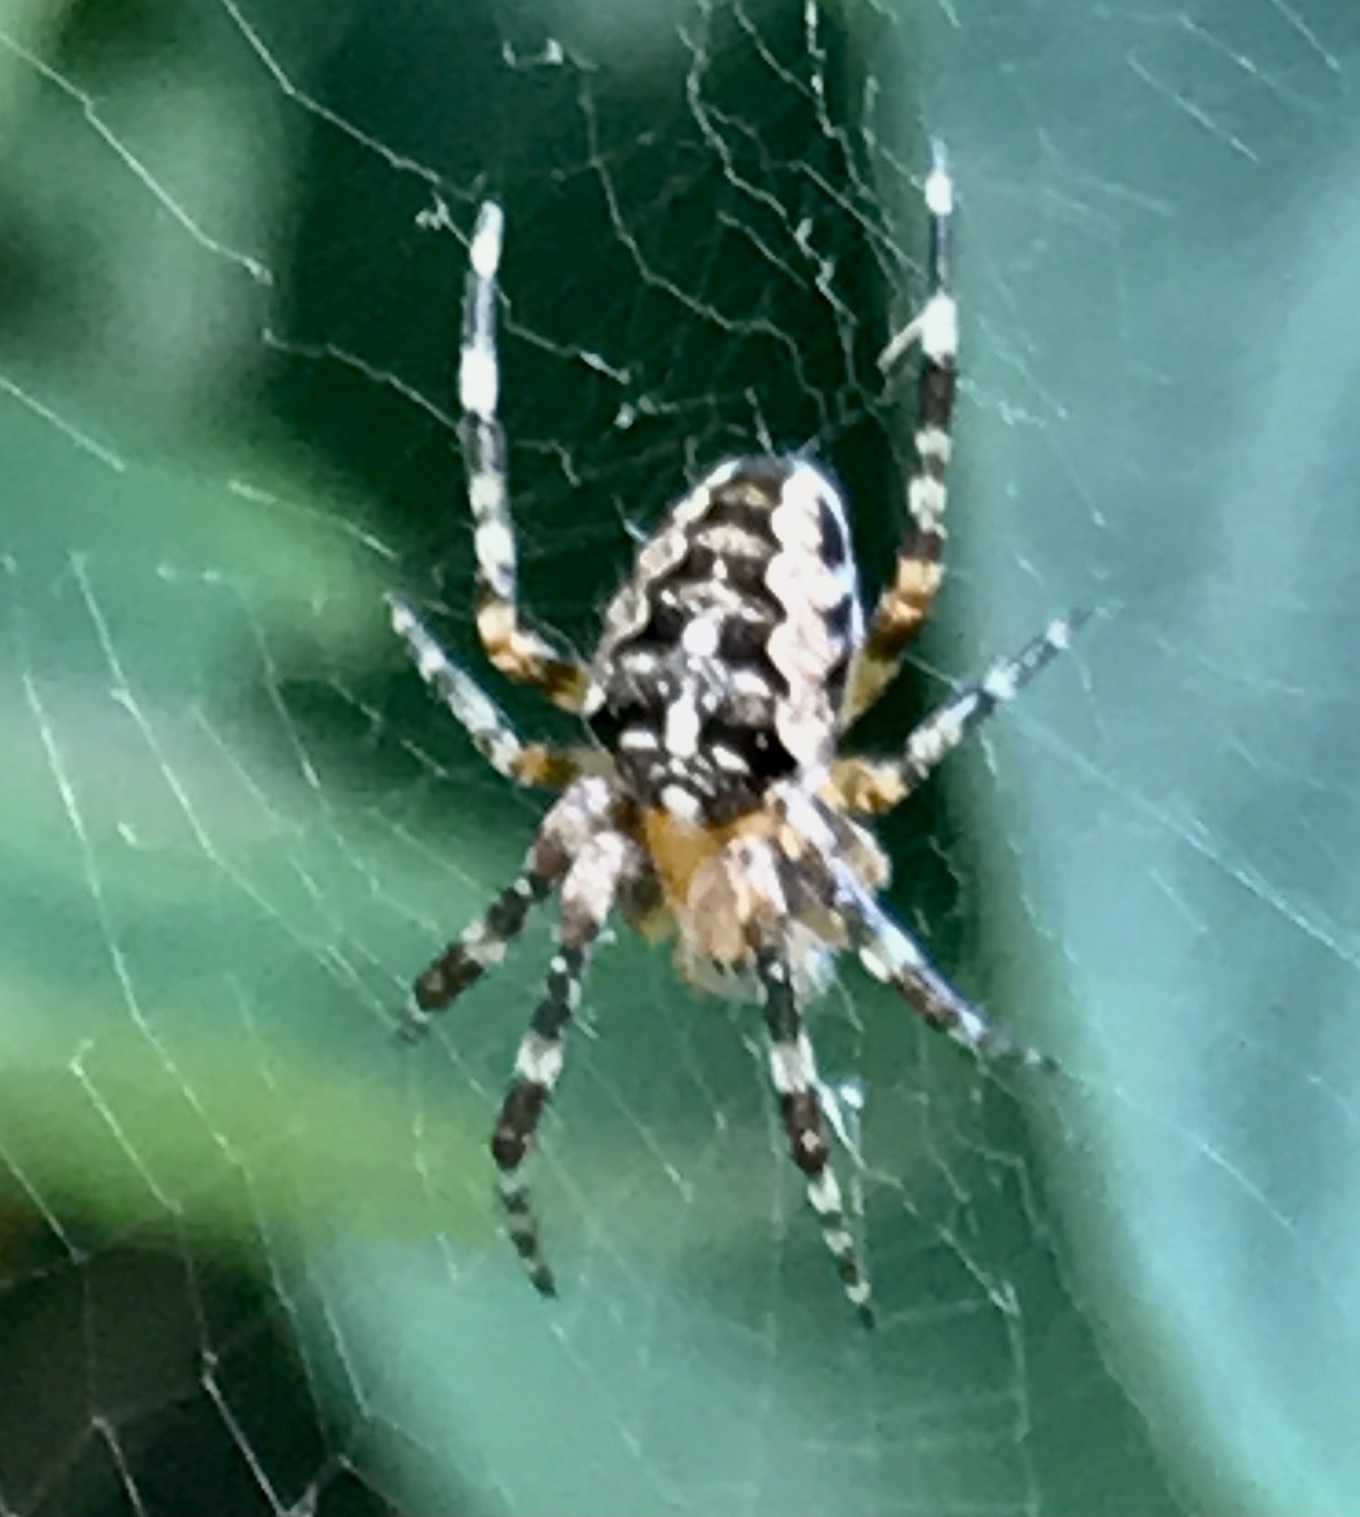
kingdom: Animalia
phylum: Arthropoda
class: Arachnida
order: Araneae
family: Araneidae
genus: Araneus
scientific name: Araneus diadematus
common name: Cross orbweaver
